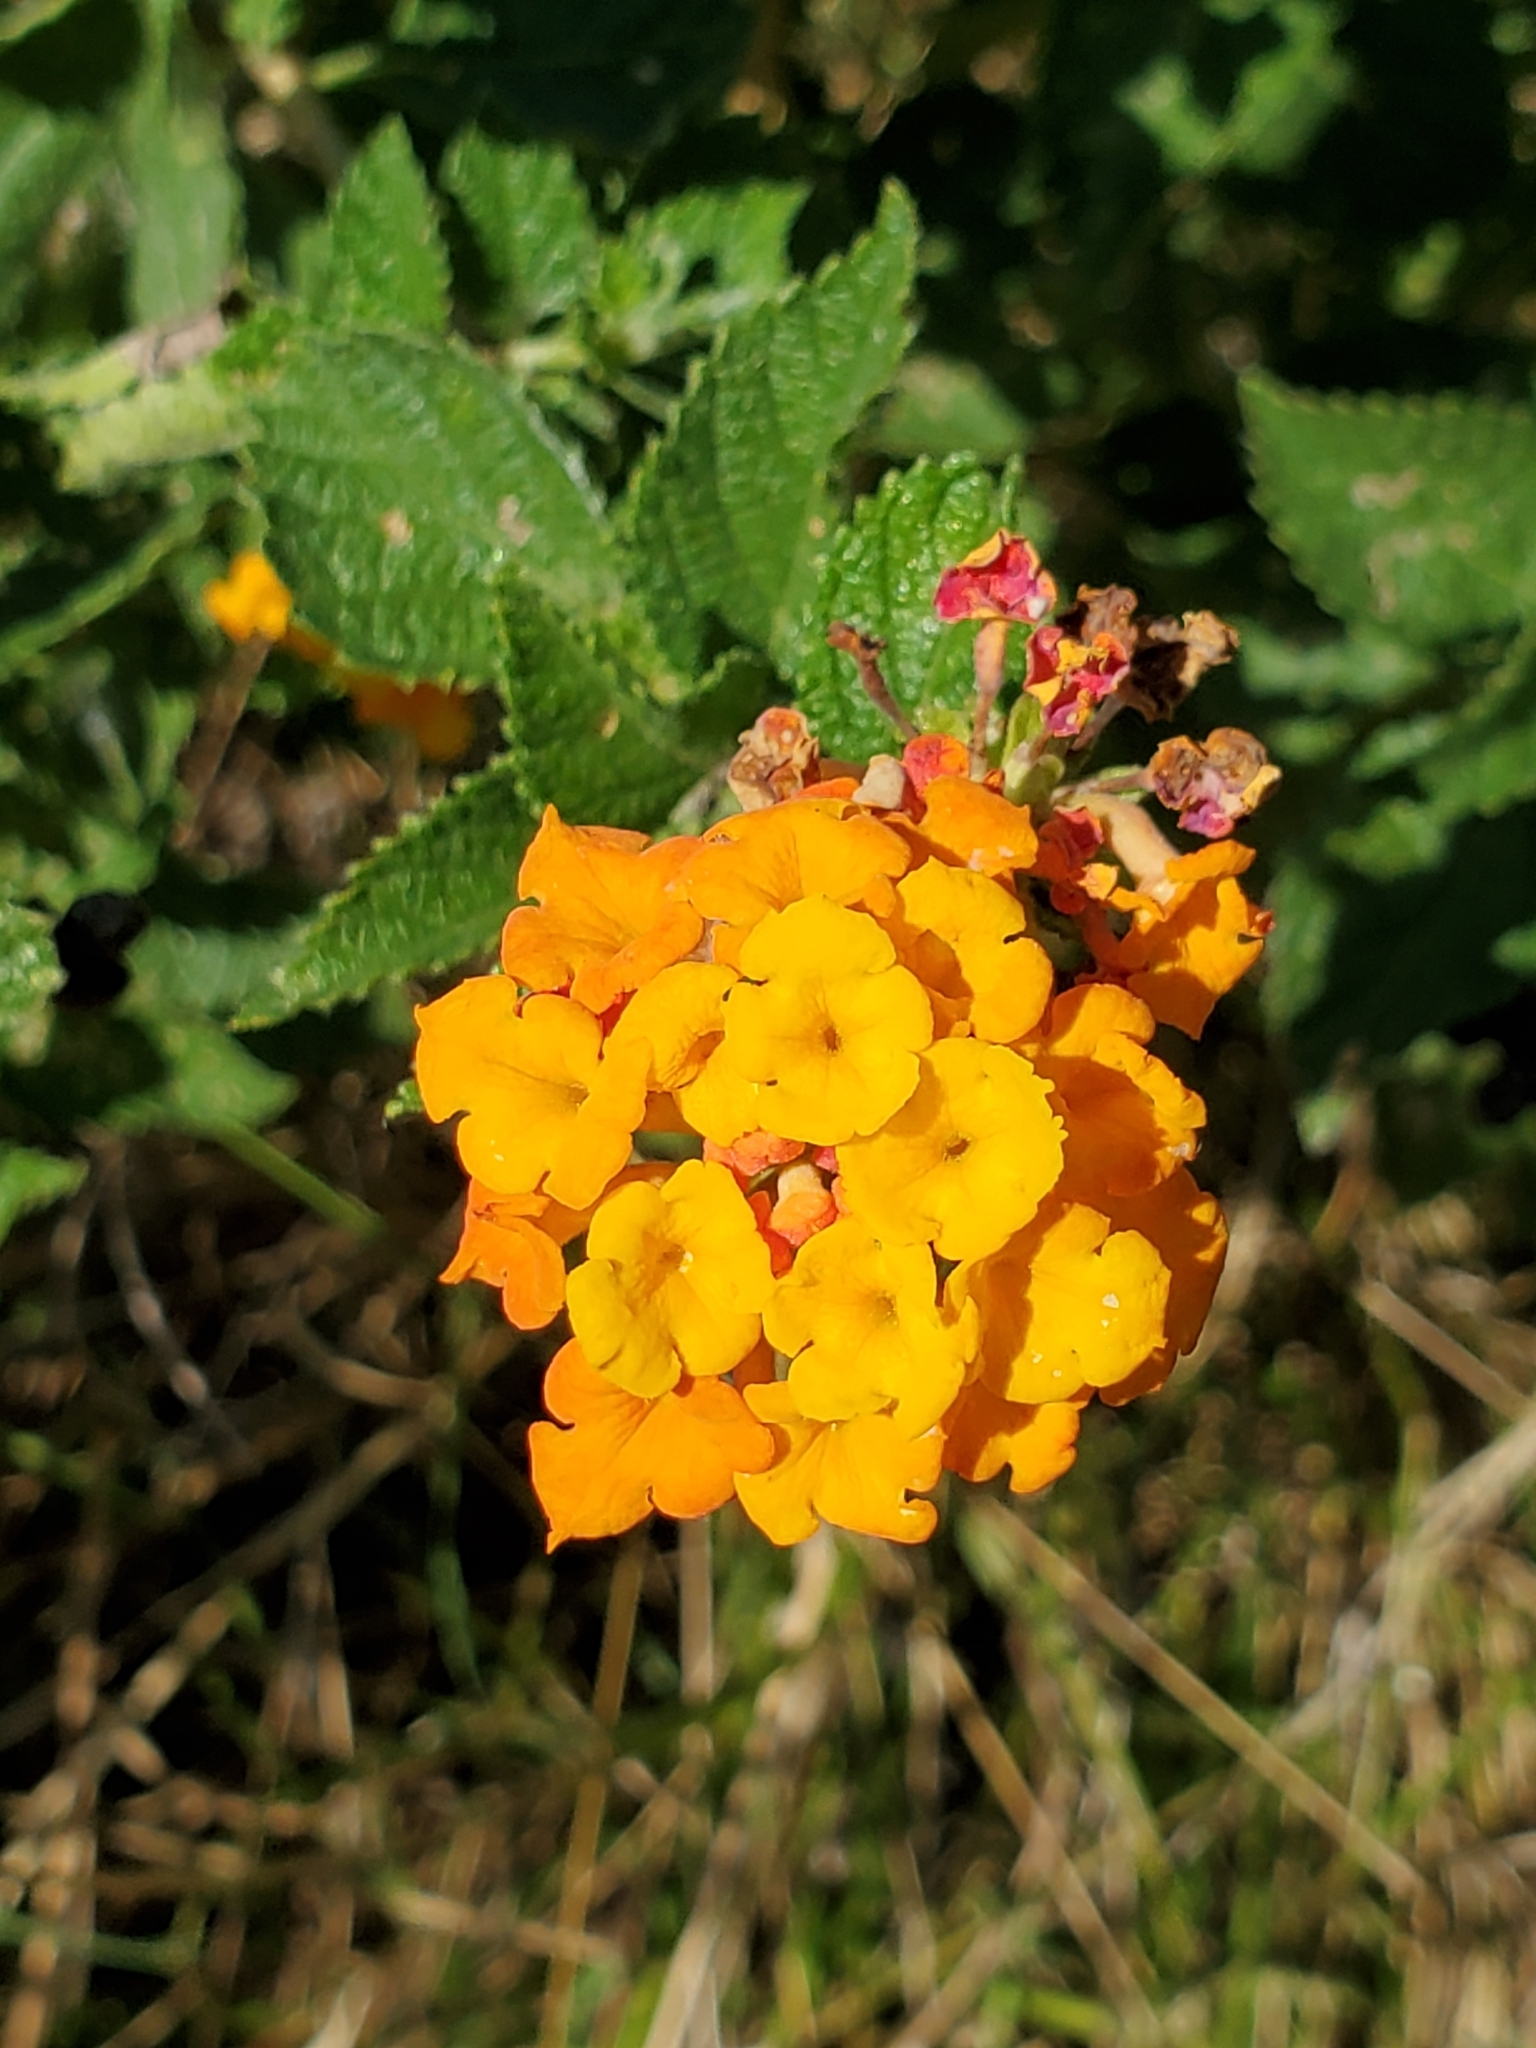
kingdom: Plantae
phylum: Tracheophyta
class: Magnoliopsida
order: Lamiales
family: Verbenaceae
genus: Lantana
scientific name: Lantana urticoides
